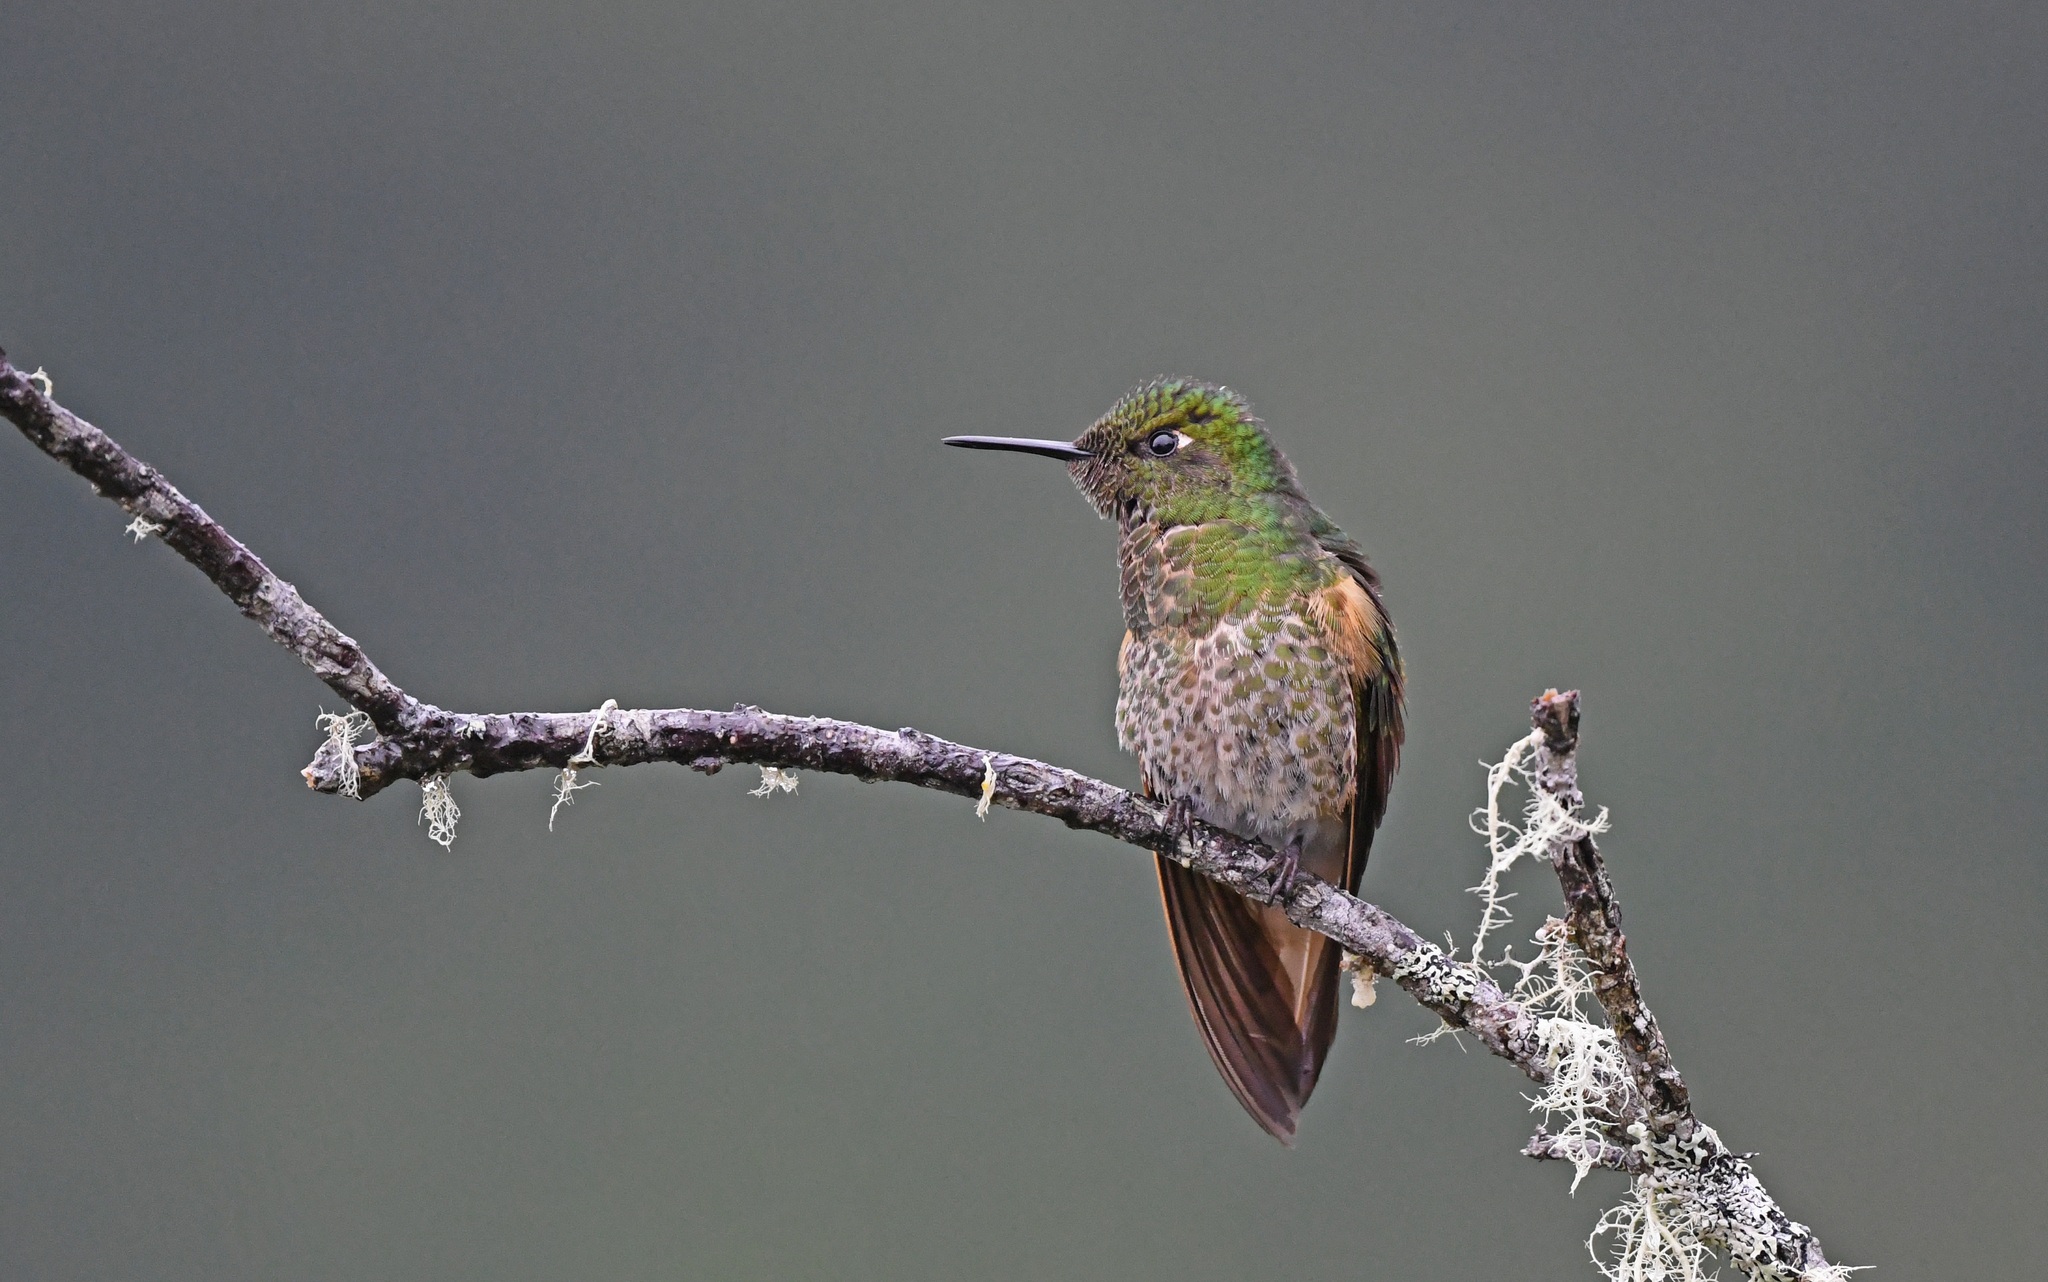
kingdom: Animalia
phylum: Chordata
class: Aves
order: Apodiformes
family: Trochilidae
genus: Boissonneaua
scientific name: Boissonneaua flavescens
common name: Buff-tailed coronet
